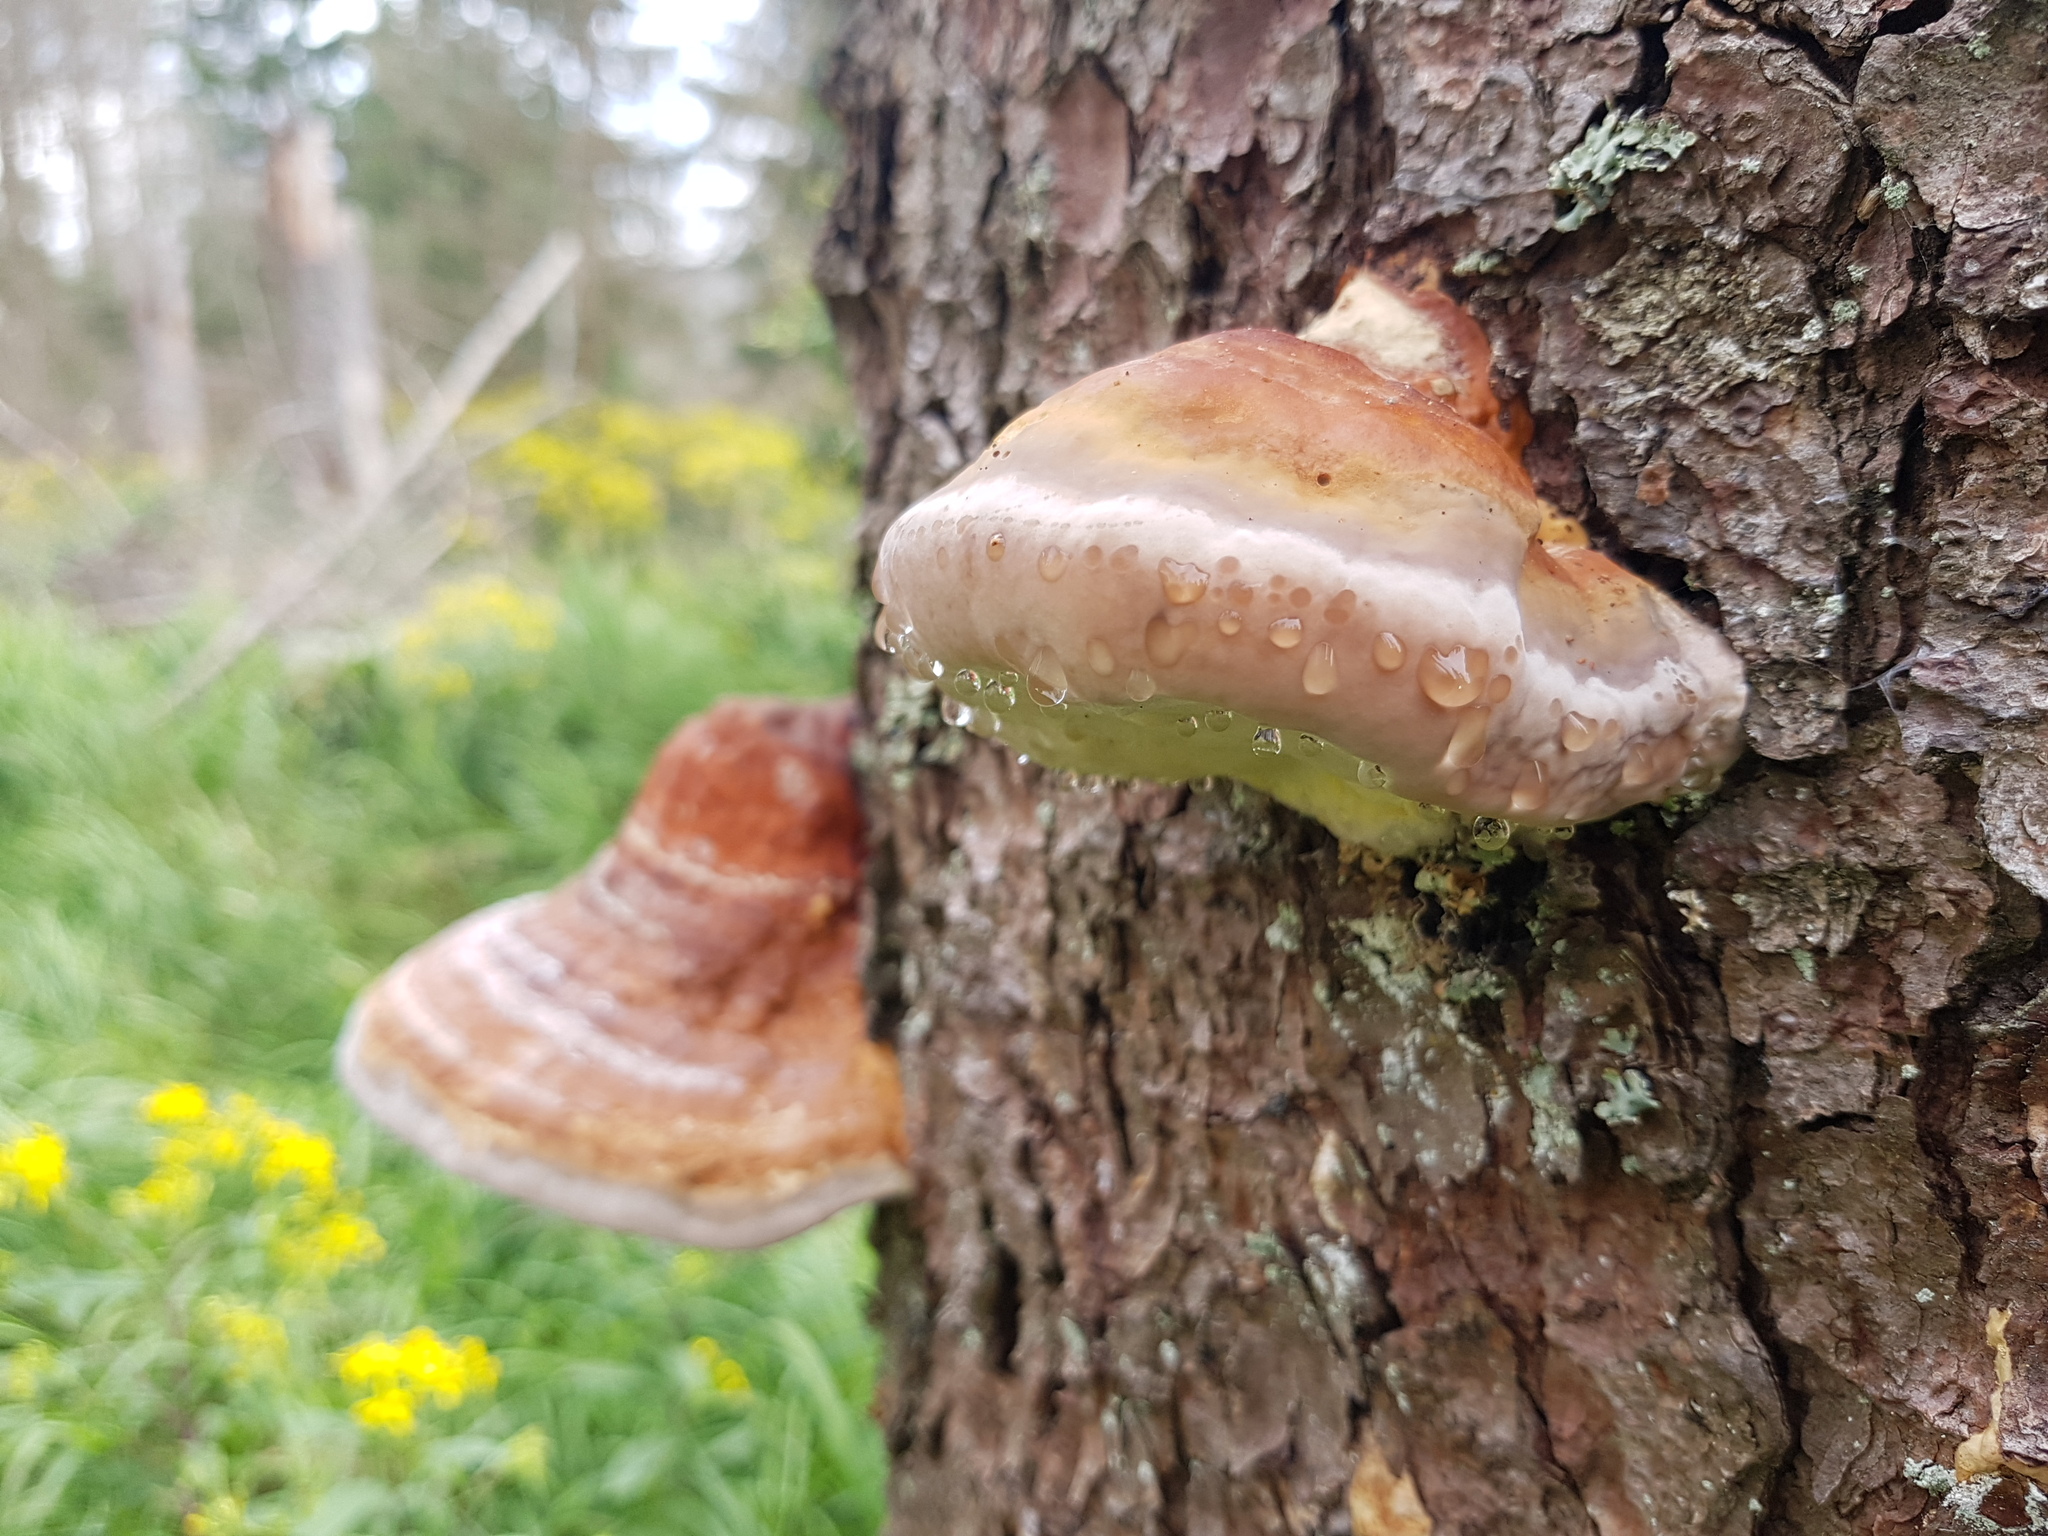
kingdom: Fungi
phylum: Basidiomycota
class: Agaricomycetes
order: Polyporales
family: Fomitopsidaceae
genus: Fomitopsis
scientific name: Fomitopsis pinicola
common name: Red-belted bracket
